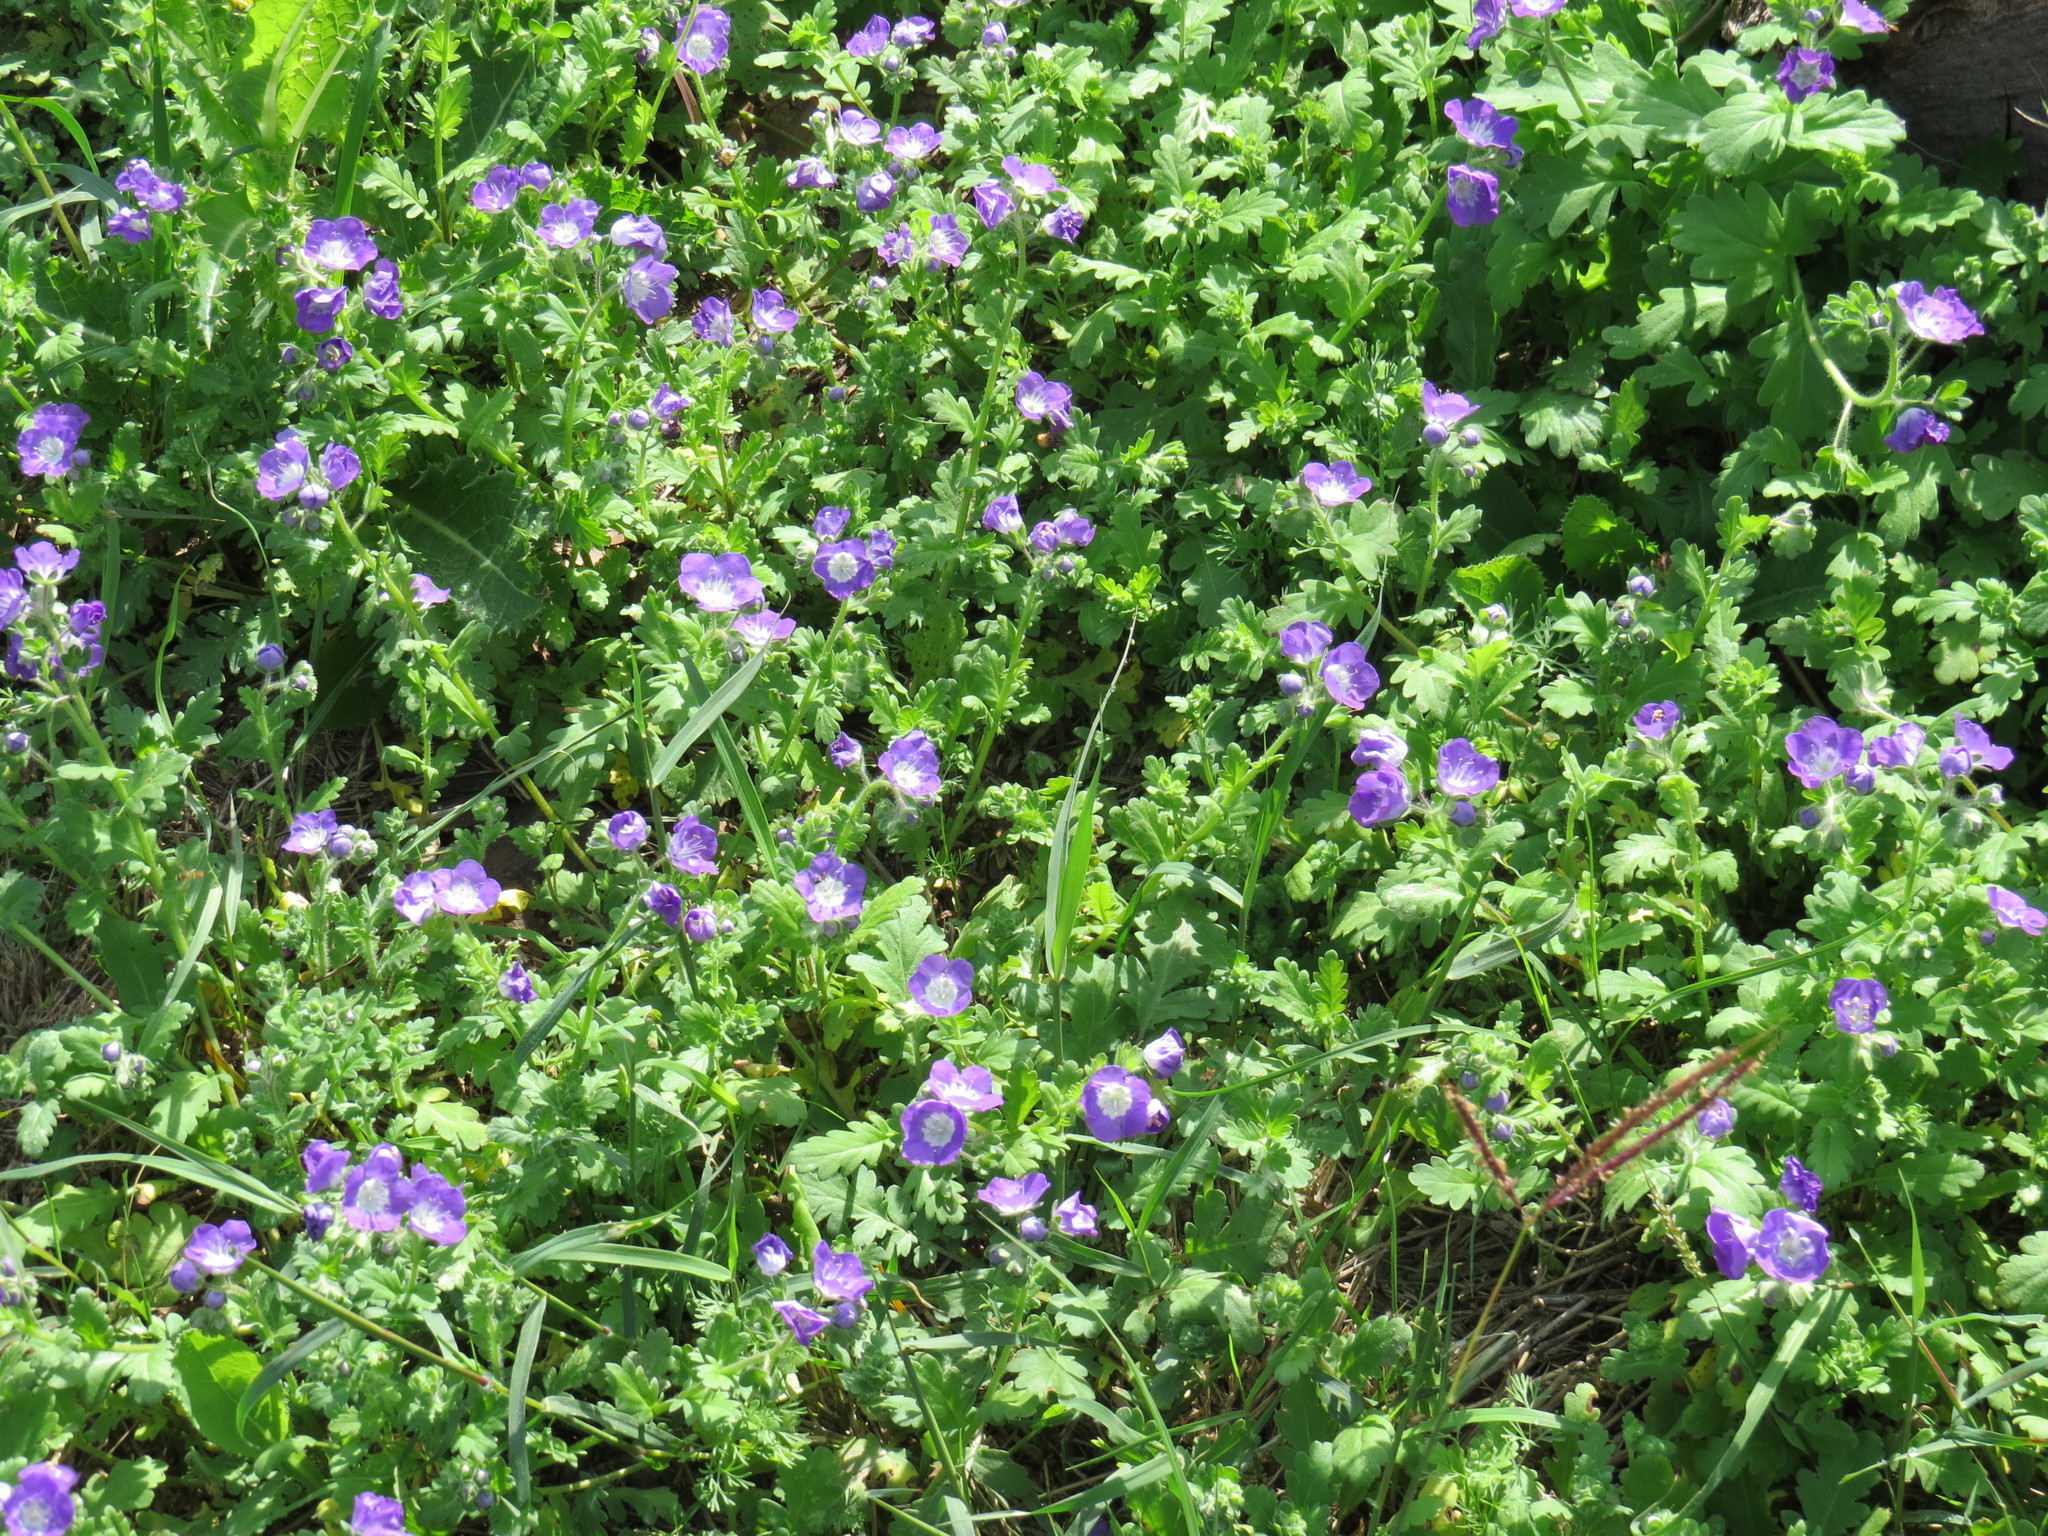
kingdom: Plantae
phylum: Tracheophyta
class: Magnoliopsida
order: Boraginales
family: Hydrophyllaceae
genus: Phacelia
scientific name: Phacelia patuliflora
